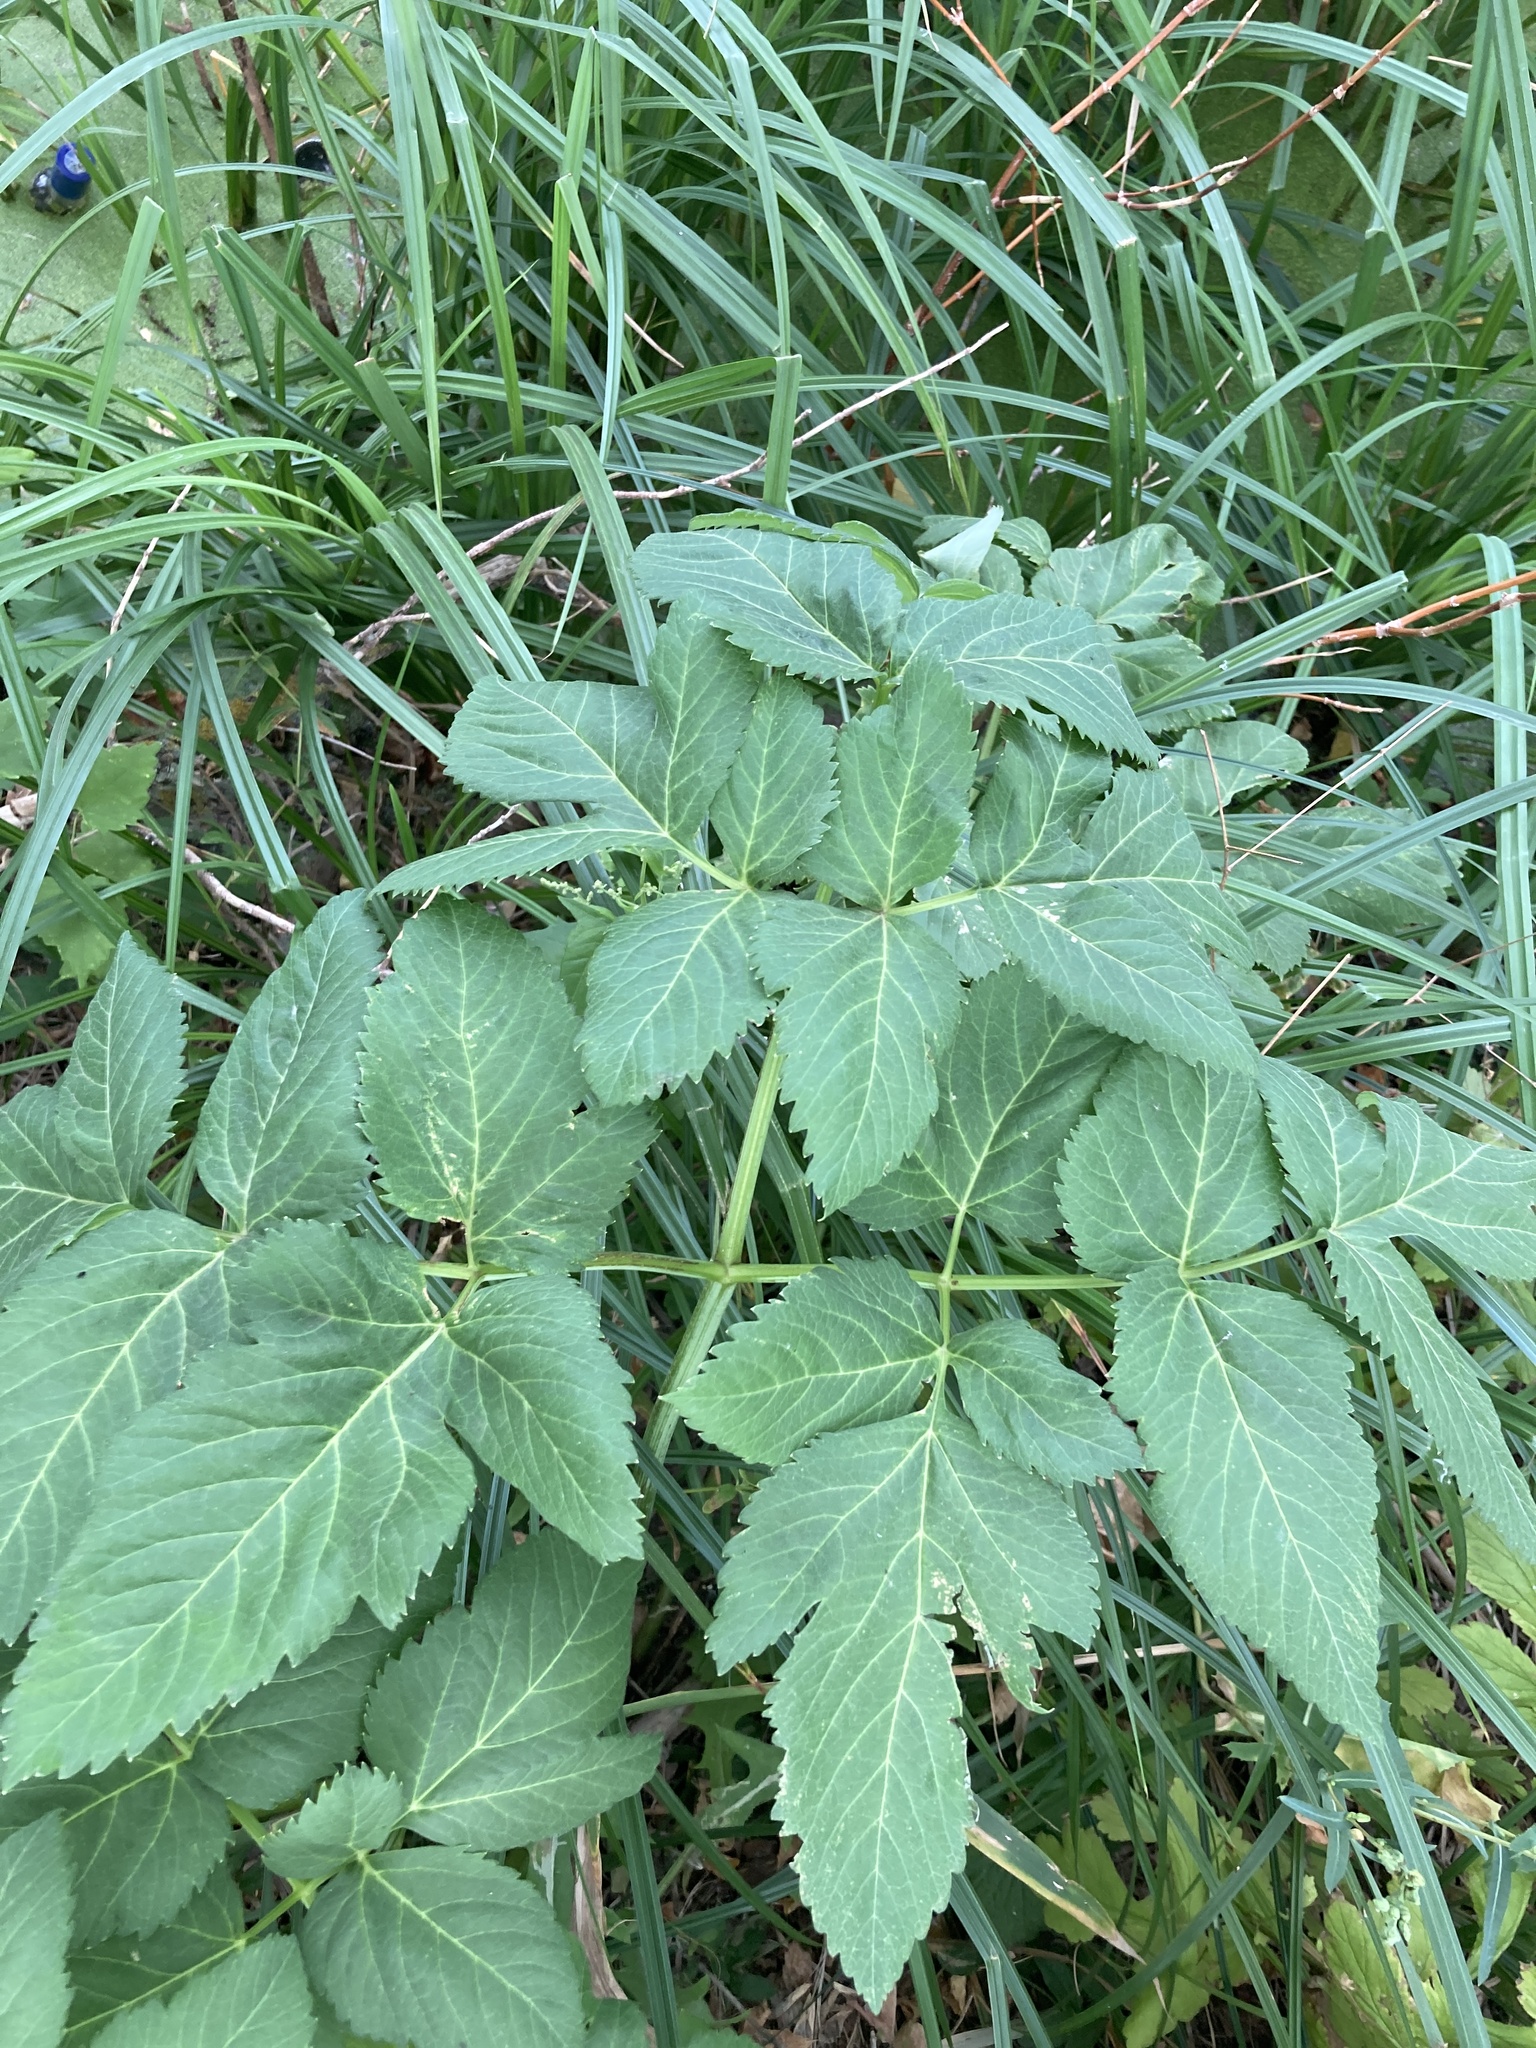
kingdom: Plantae
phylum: Tracheophyta
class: Magnoliopsida
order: Apiales
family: Apiaceae
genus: Angelica
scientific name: Angelica archangelica
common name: Garden angelica
